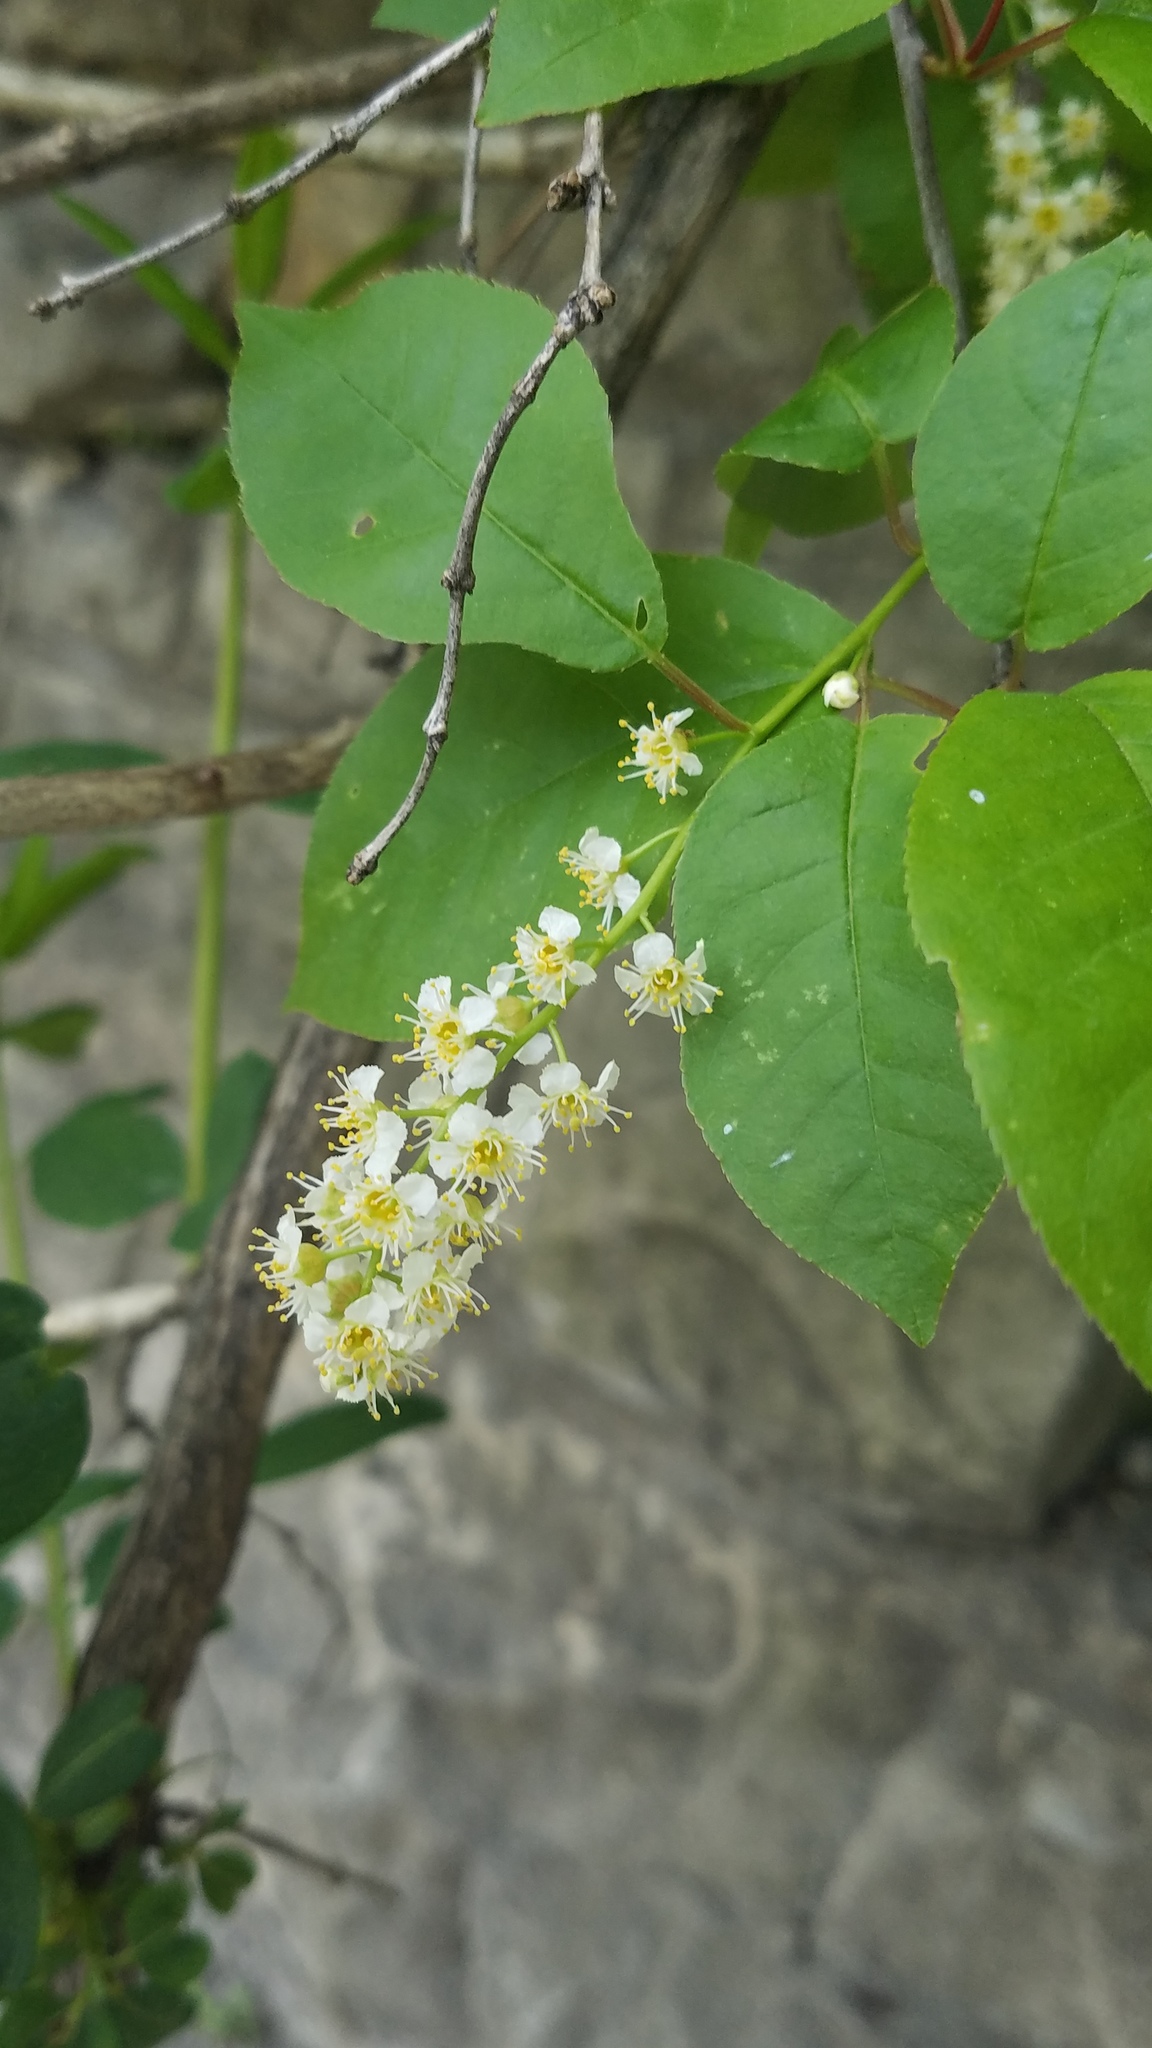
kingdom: Plantae
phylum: Tracheophyta
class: Magnoliopsida
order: Rosales
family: Rosaceae
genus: Prunus
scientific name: Prunus virginiana
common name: Chokecherry
